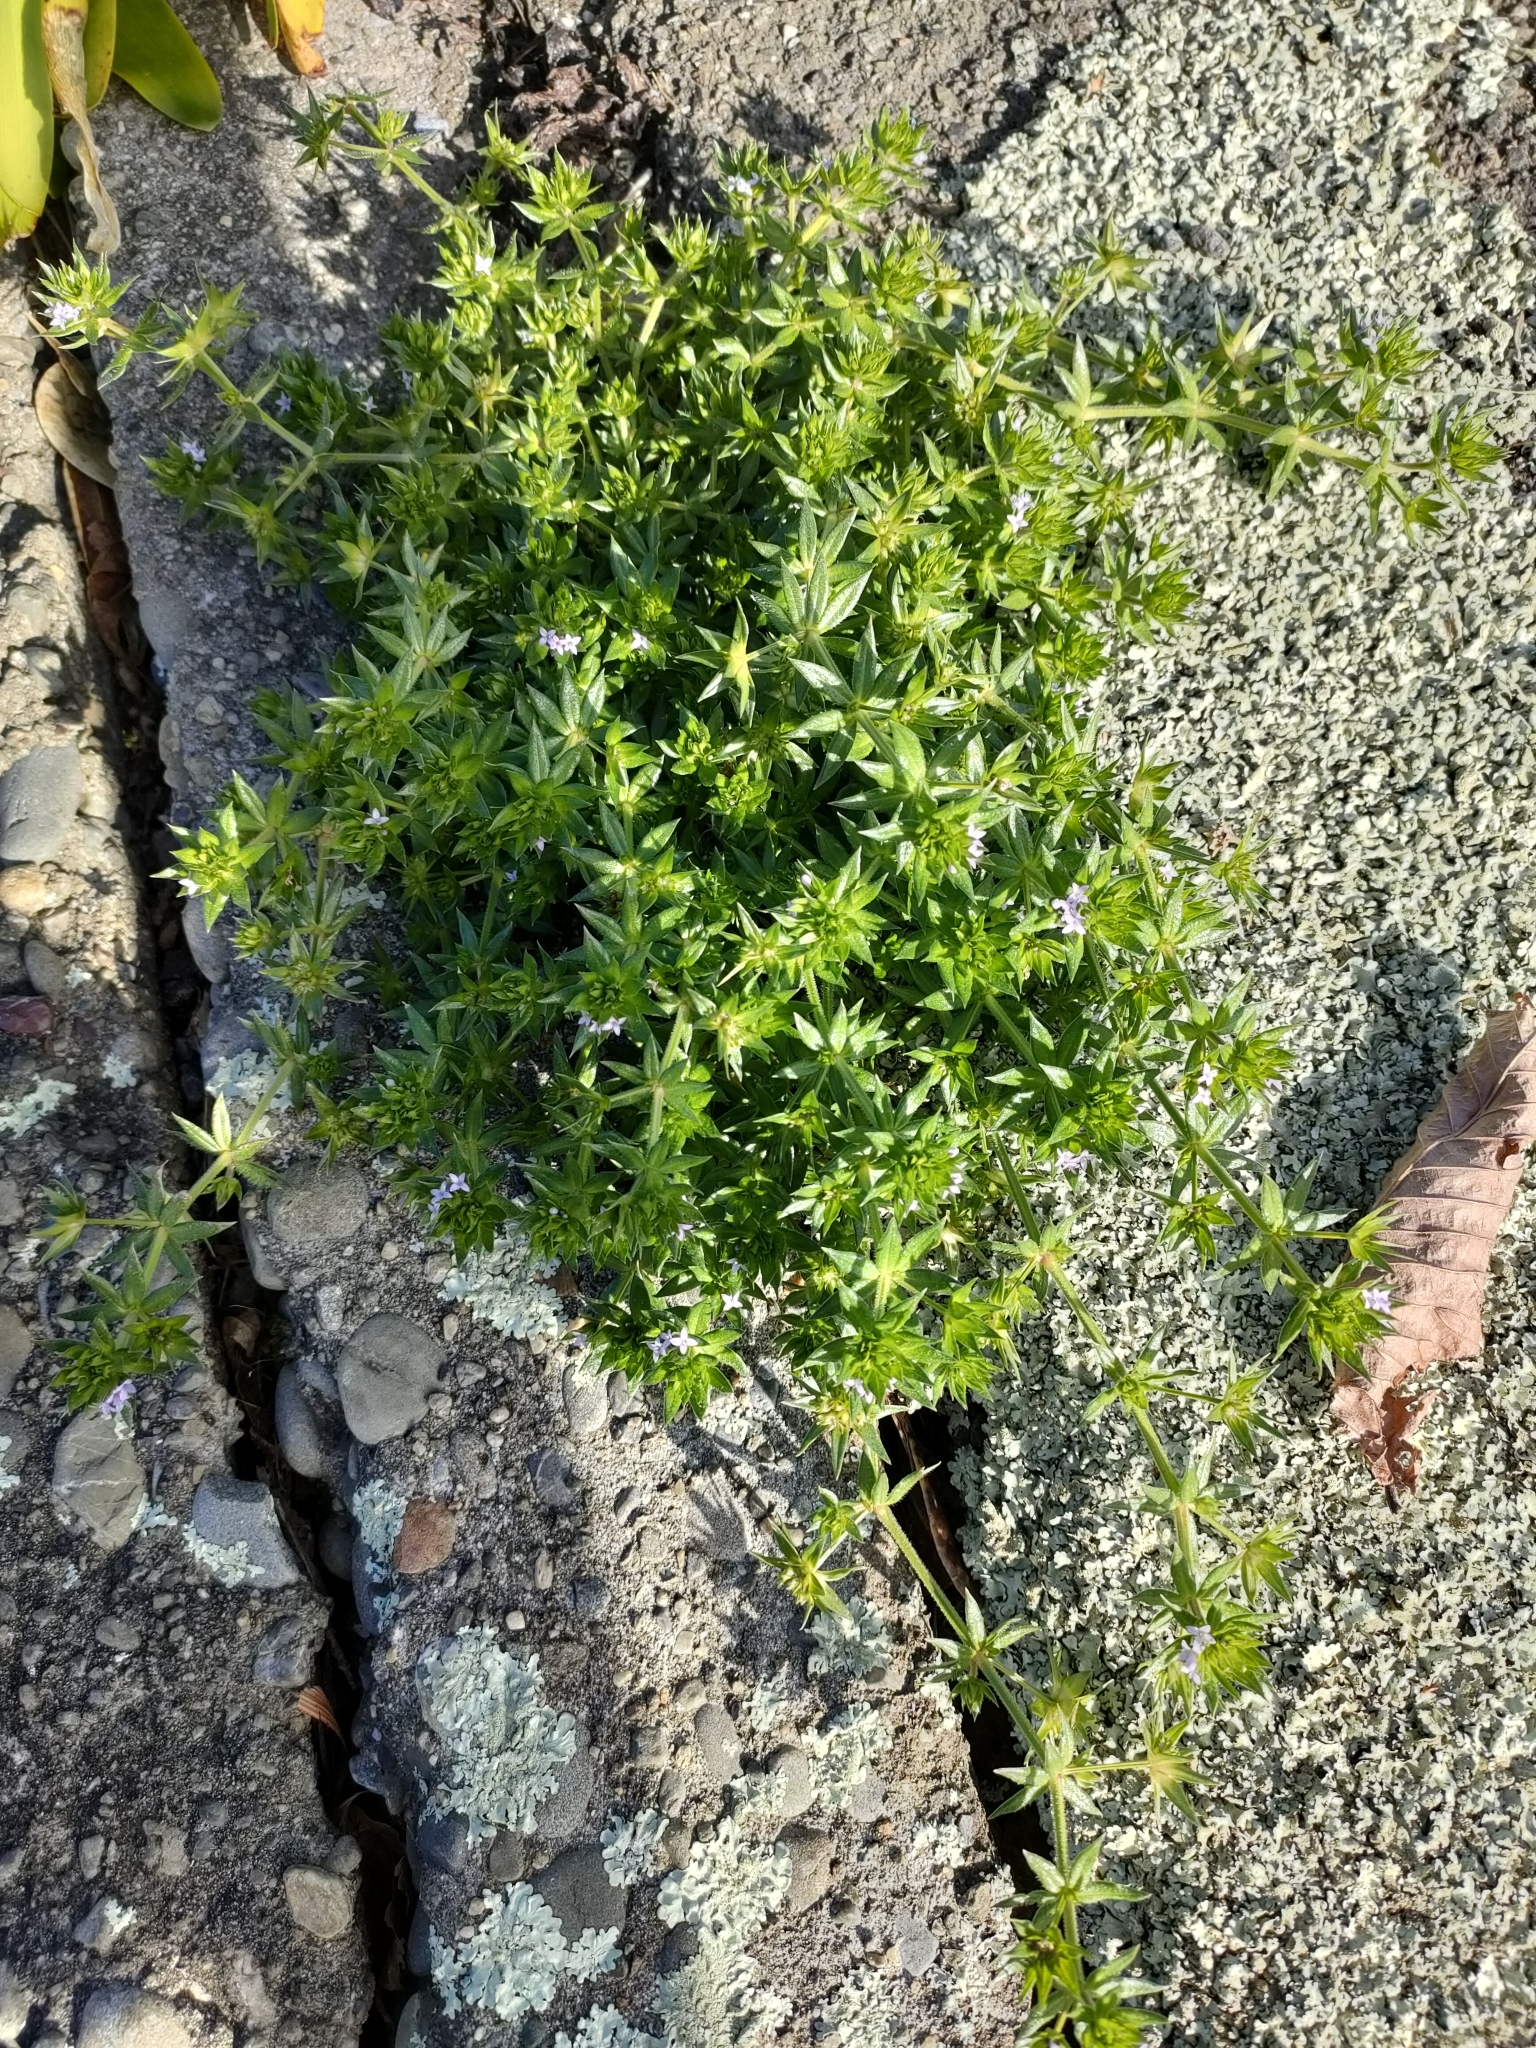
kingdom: Plantae
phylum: Tracheophyta
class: Magnoliopsida
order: Gentianales
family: Rubiaceae
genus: Sherardia
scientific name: Sherardia arvensis
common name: Field madder
